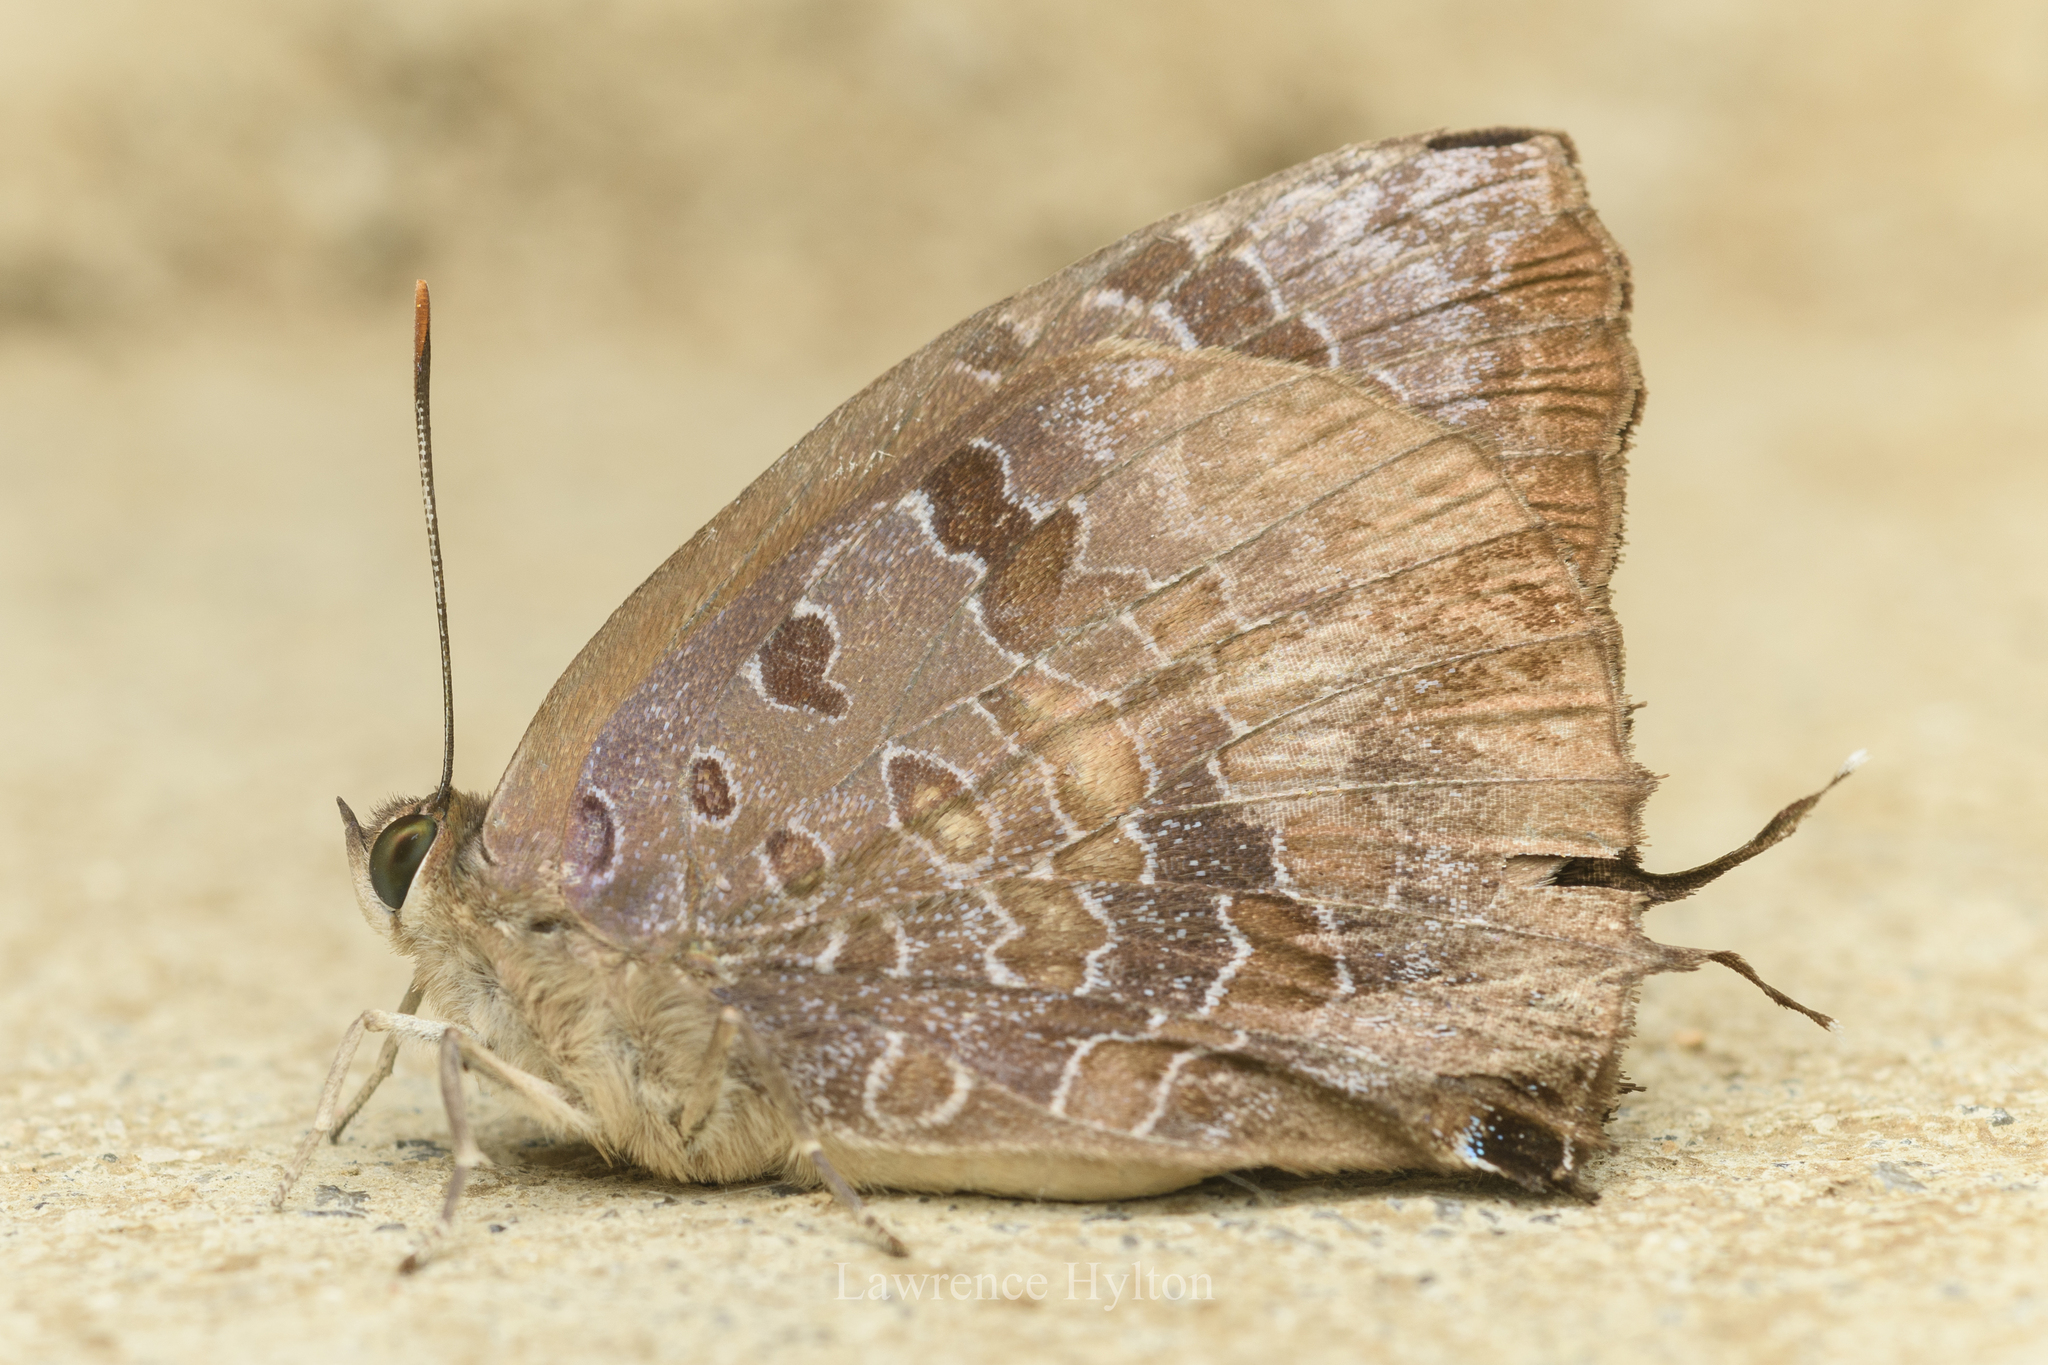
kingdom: Animalia
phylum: Arthropoda
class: Insecta
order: Lepidoptera
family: Lycaenidae
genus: Arhopala
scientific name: Arhopala bazalus
